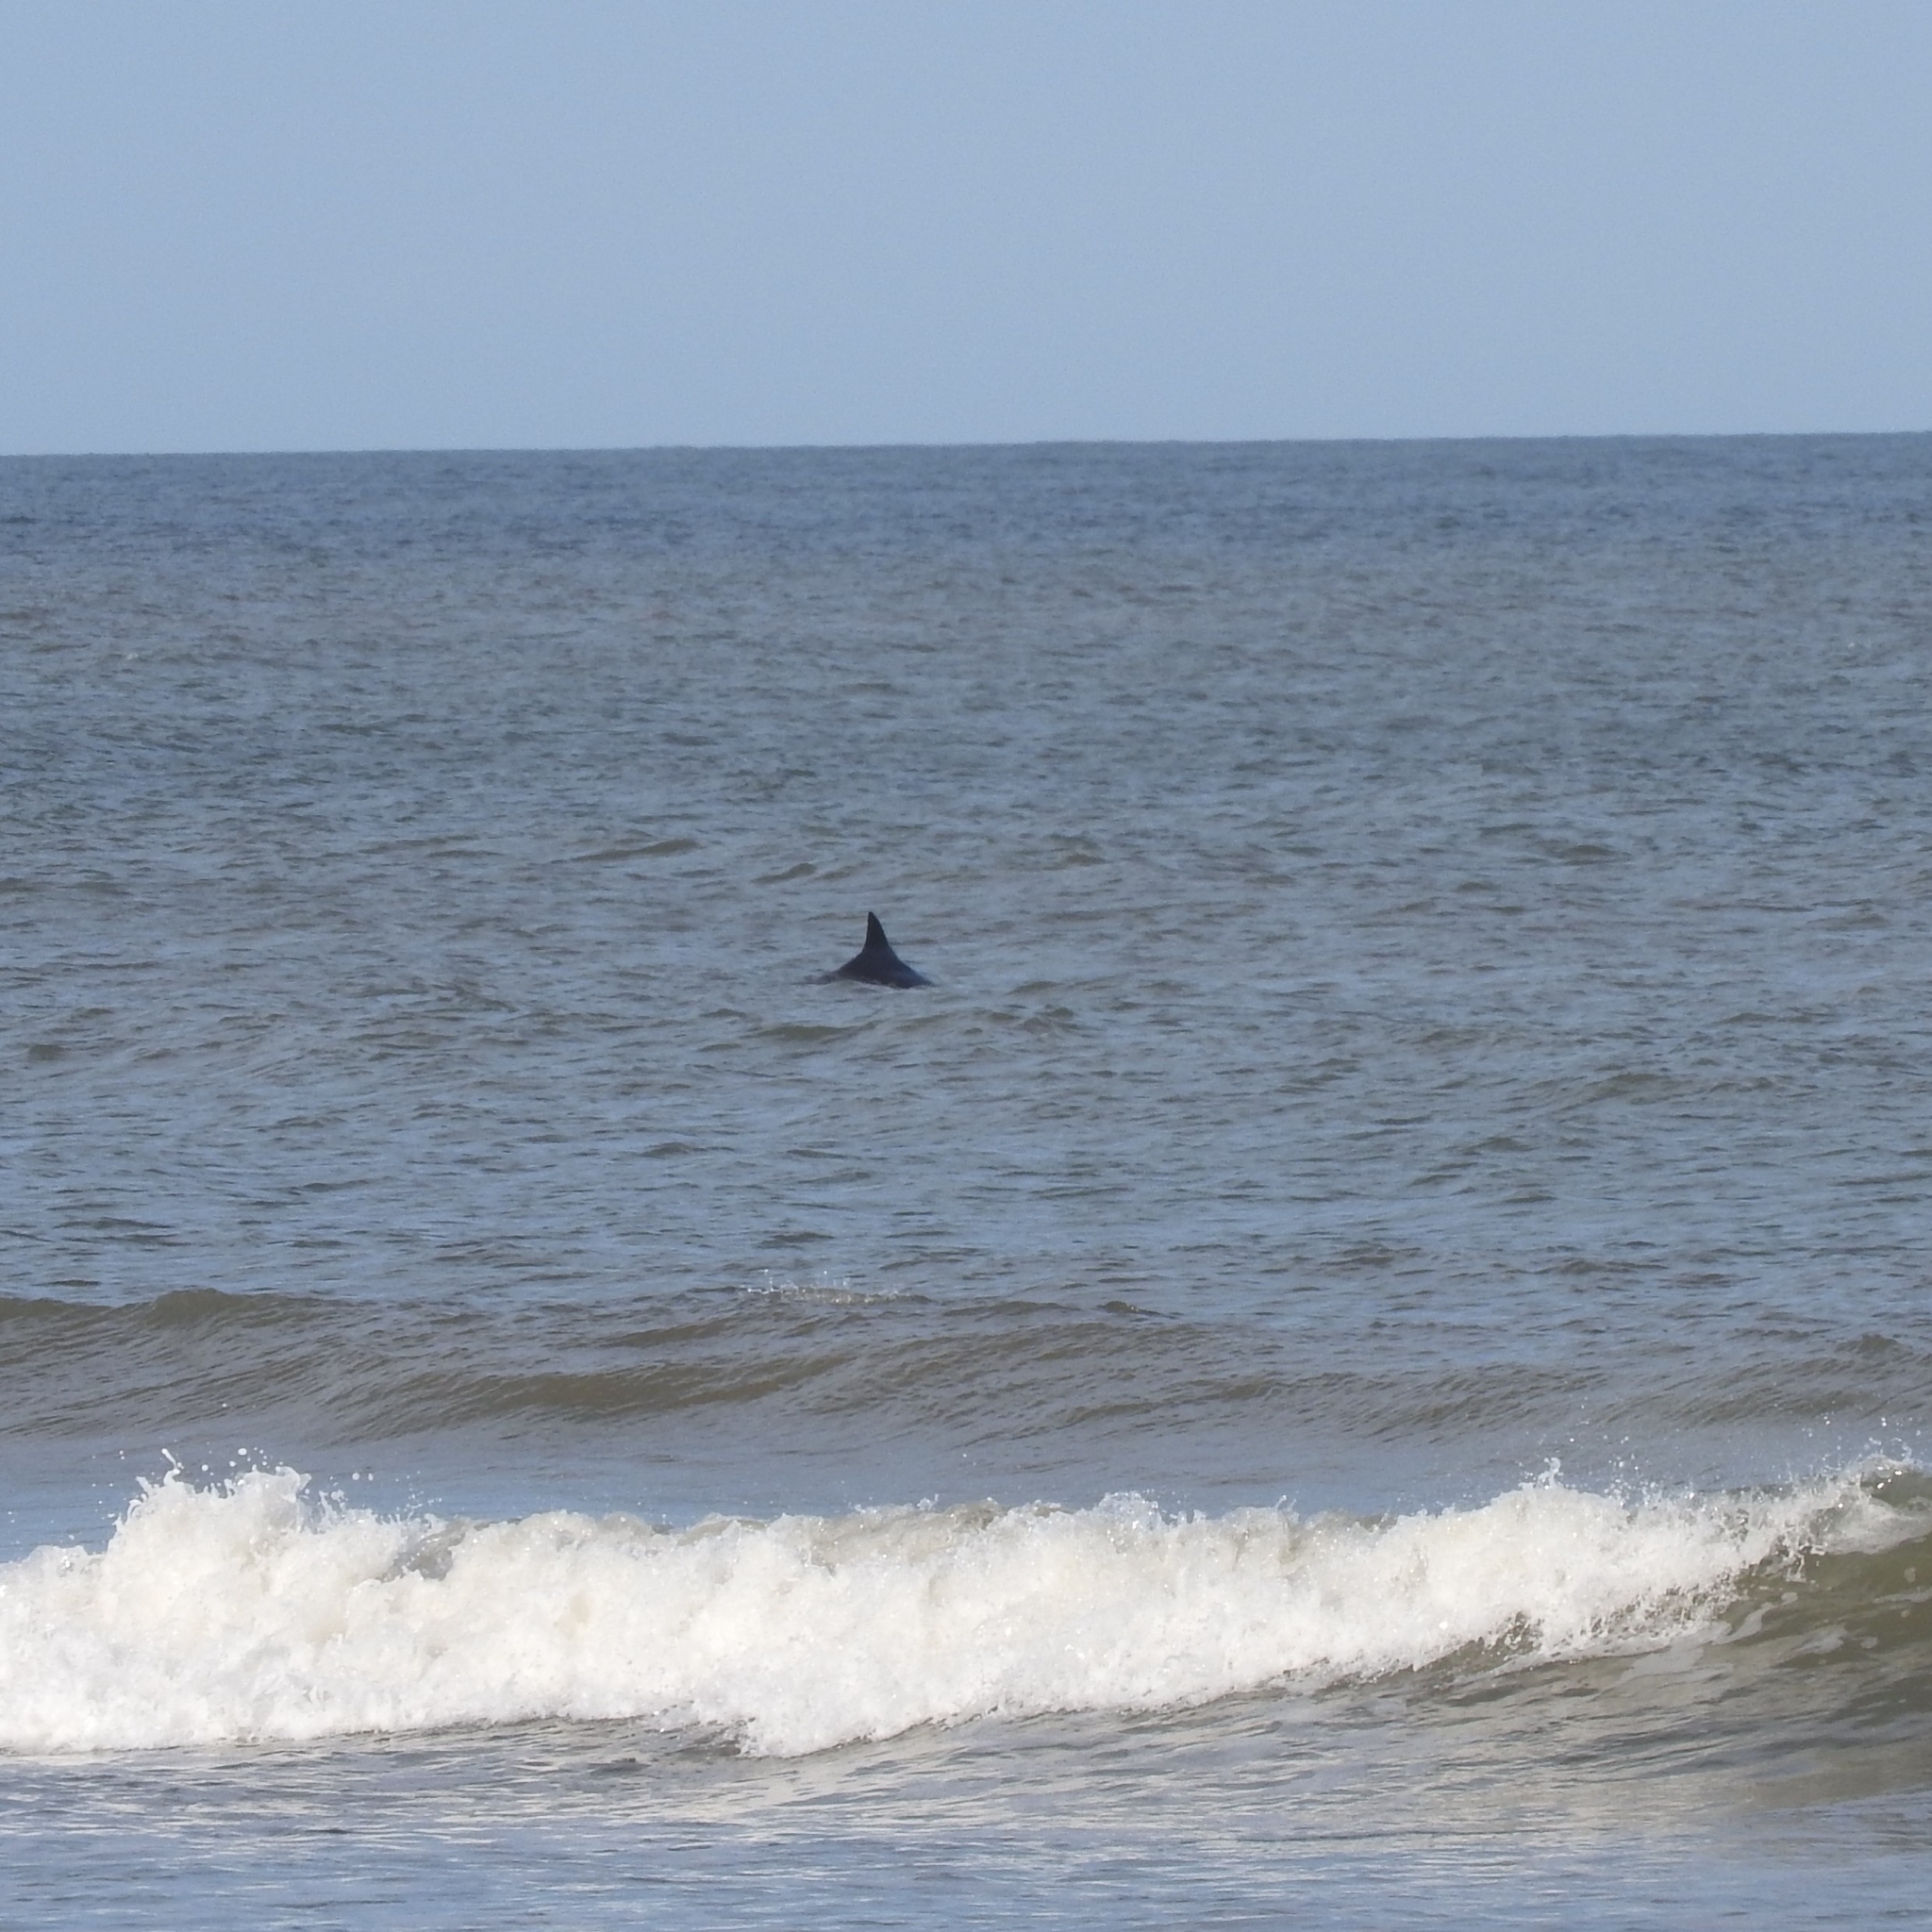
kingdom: Animalia
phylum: Chordata
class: Mammalia
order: Cetacea
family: Delphinidae
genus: Tursiops
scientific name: Tursiops truncatus
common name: Bottlenose dolphin
